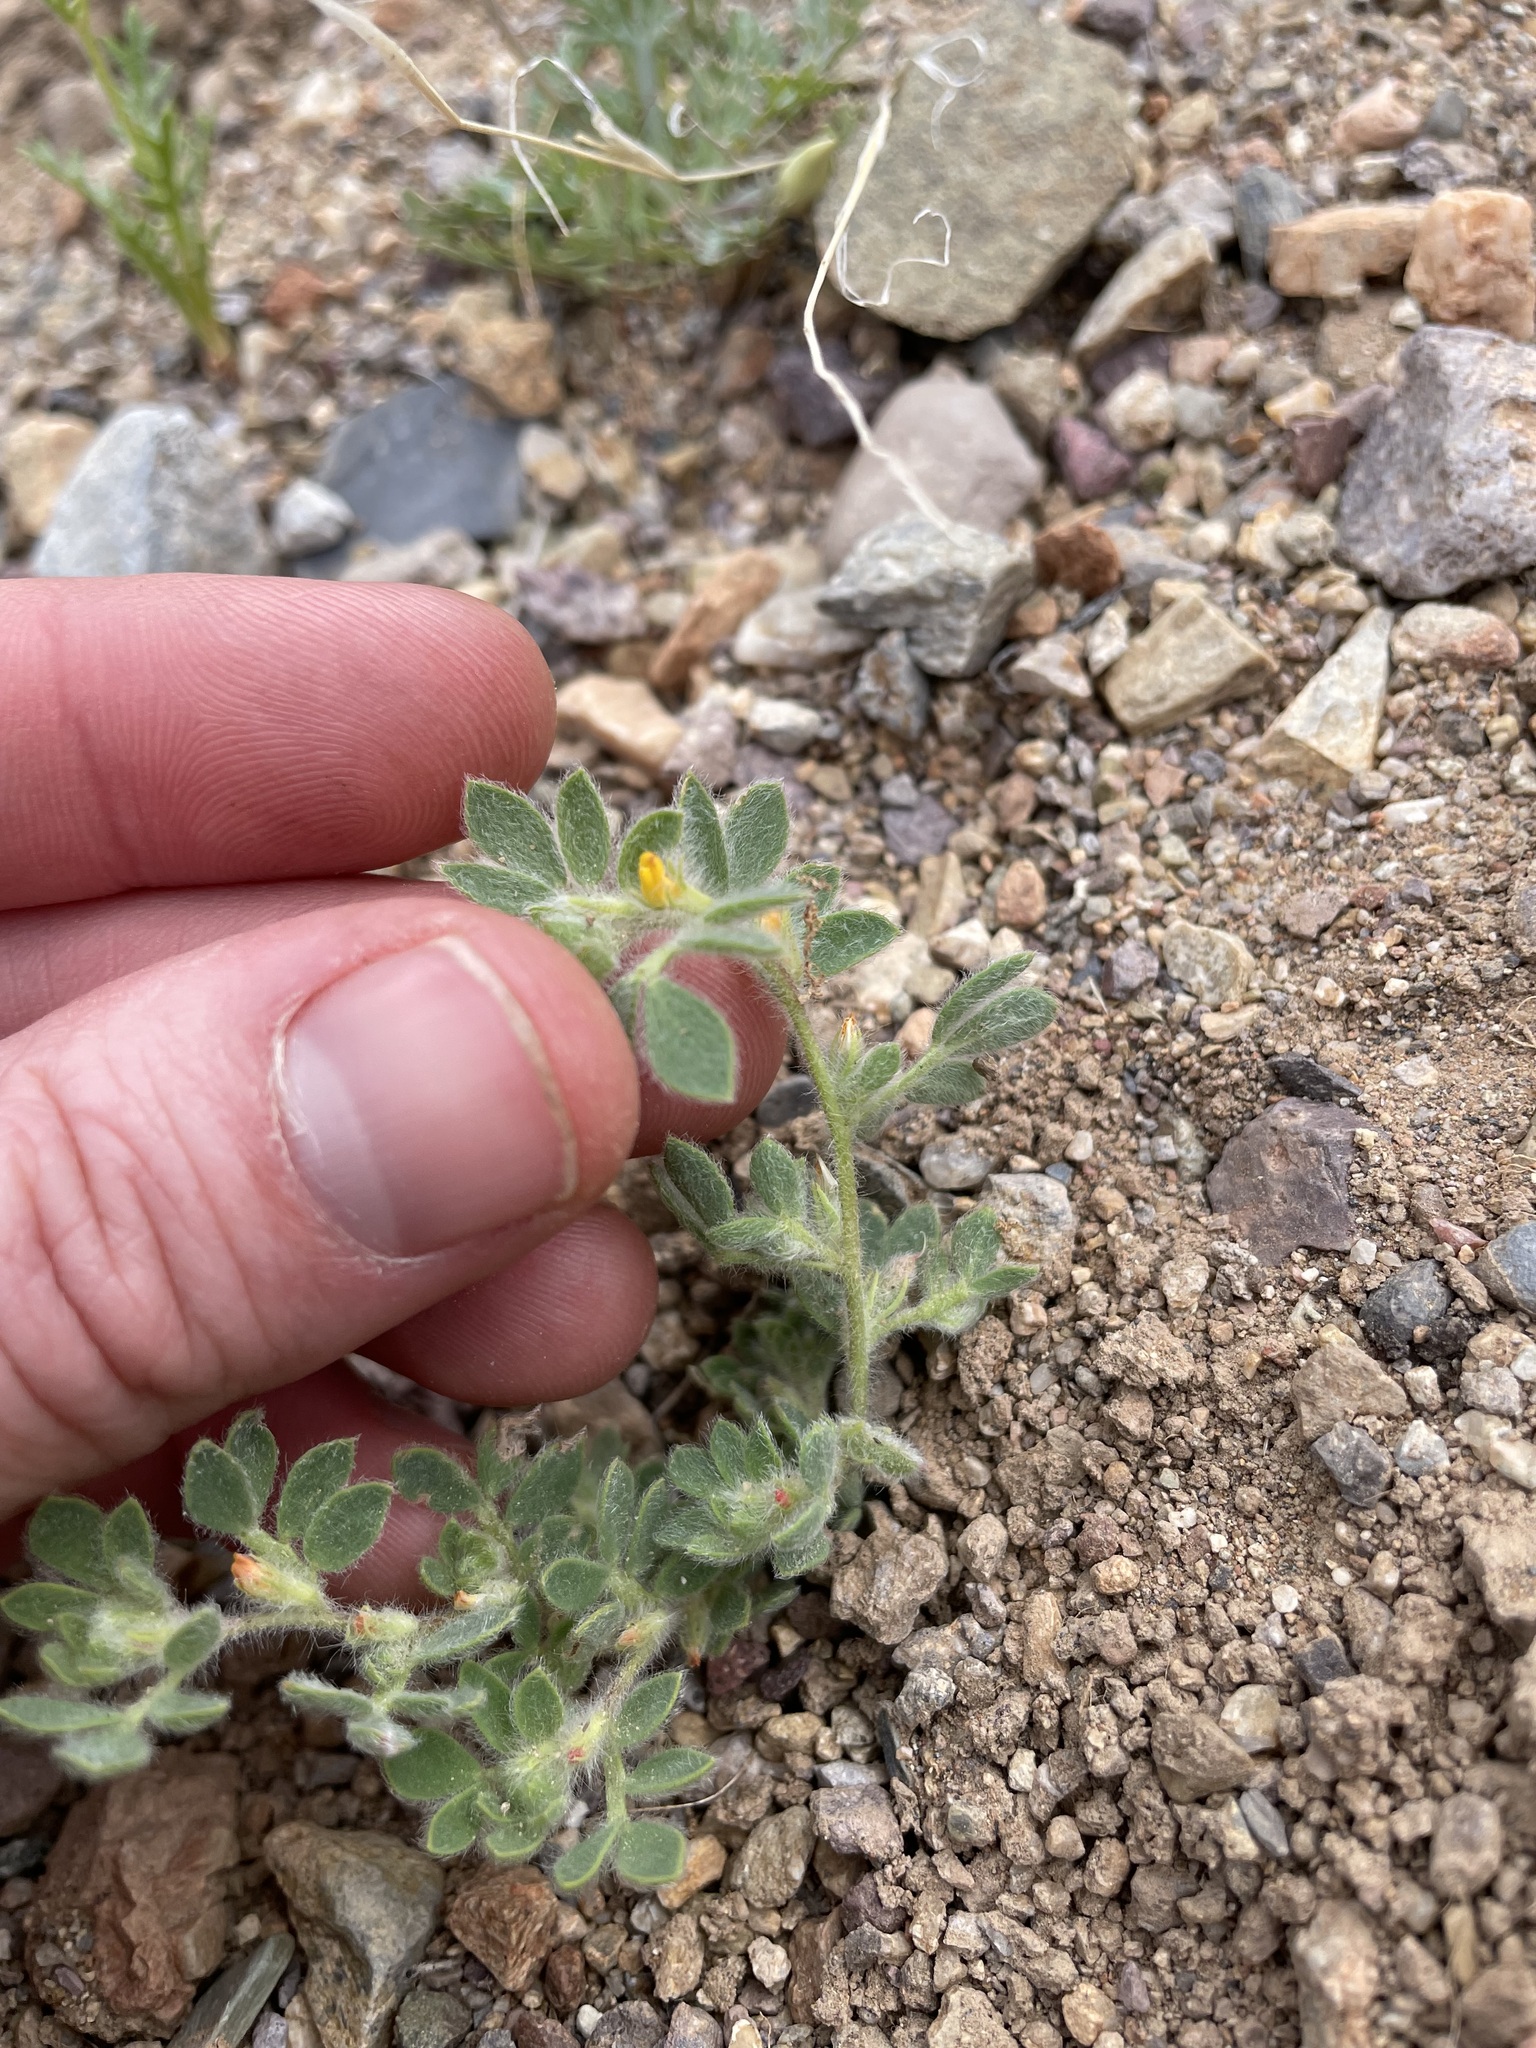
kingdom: Plantae
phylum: Tracheophyta
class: Magnoliopsida
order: Fabales
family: Fabaceae
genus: Acmispon
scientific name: Acmispon brachycarpus
